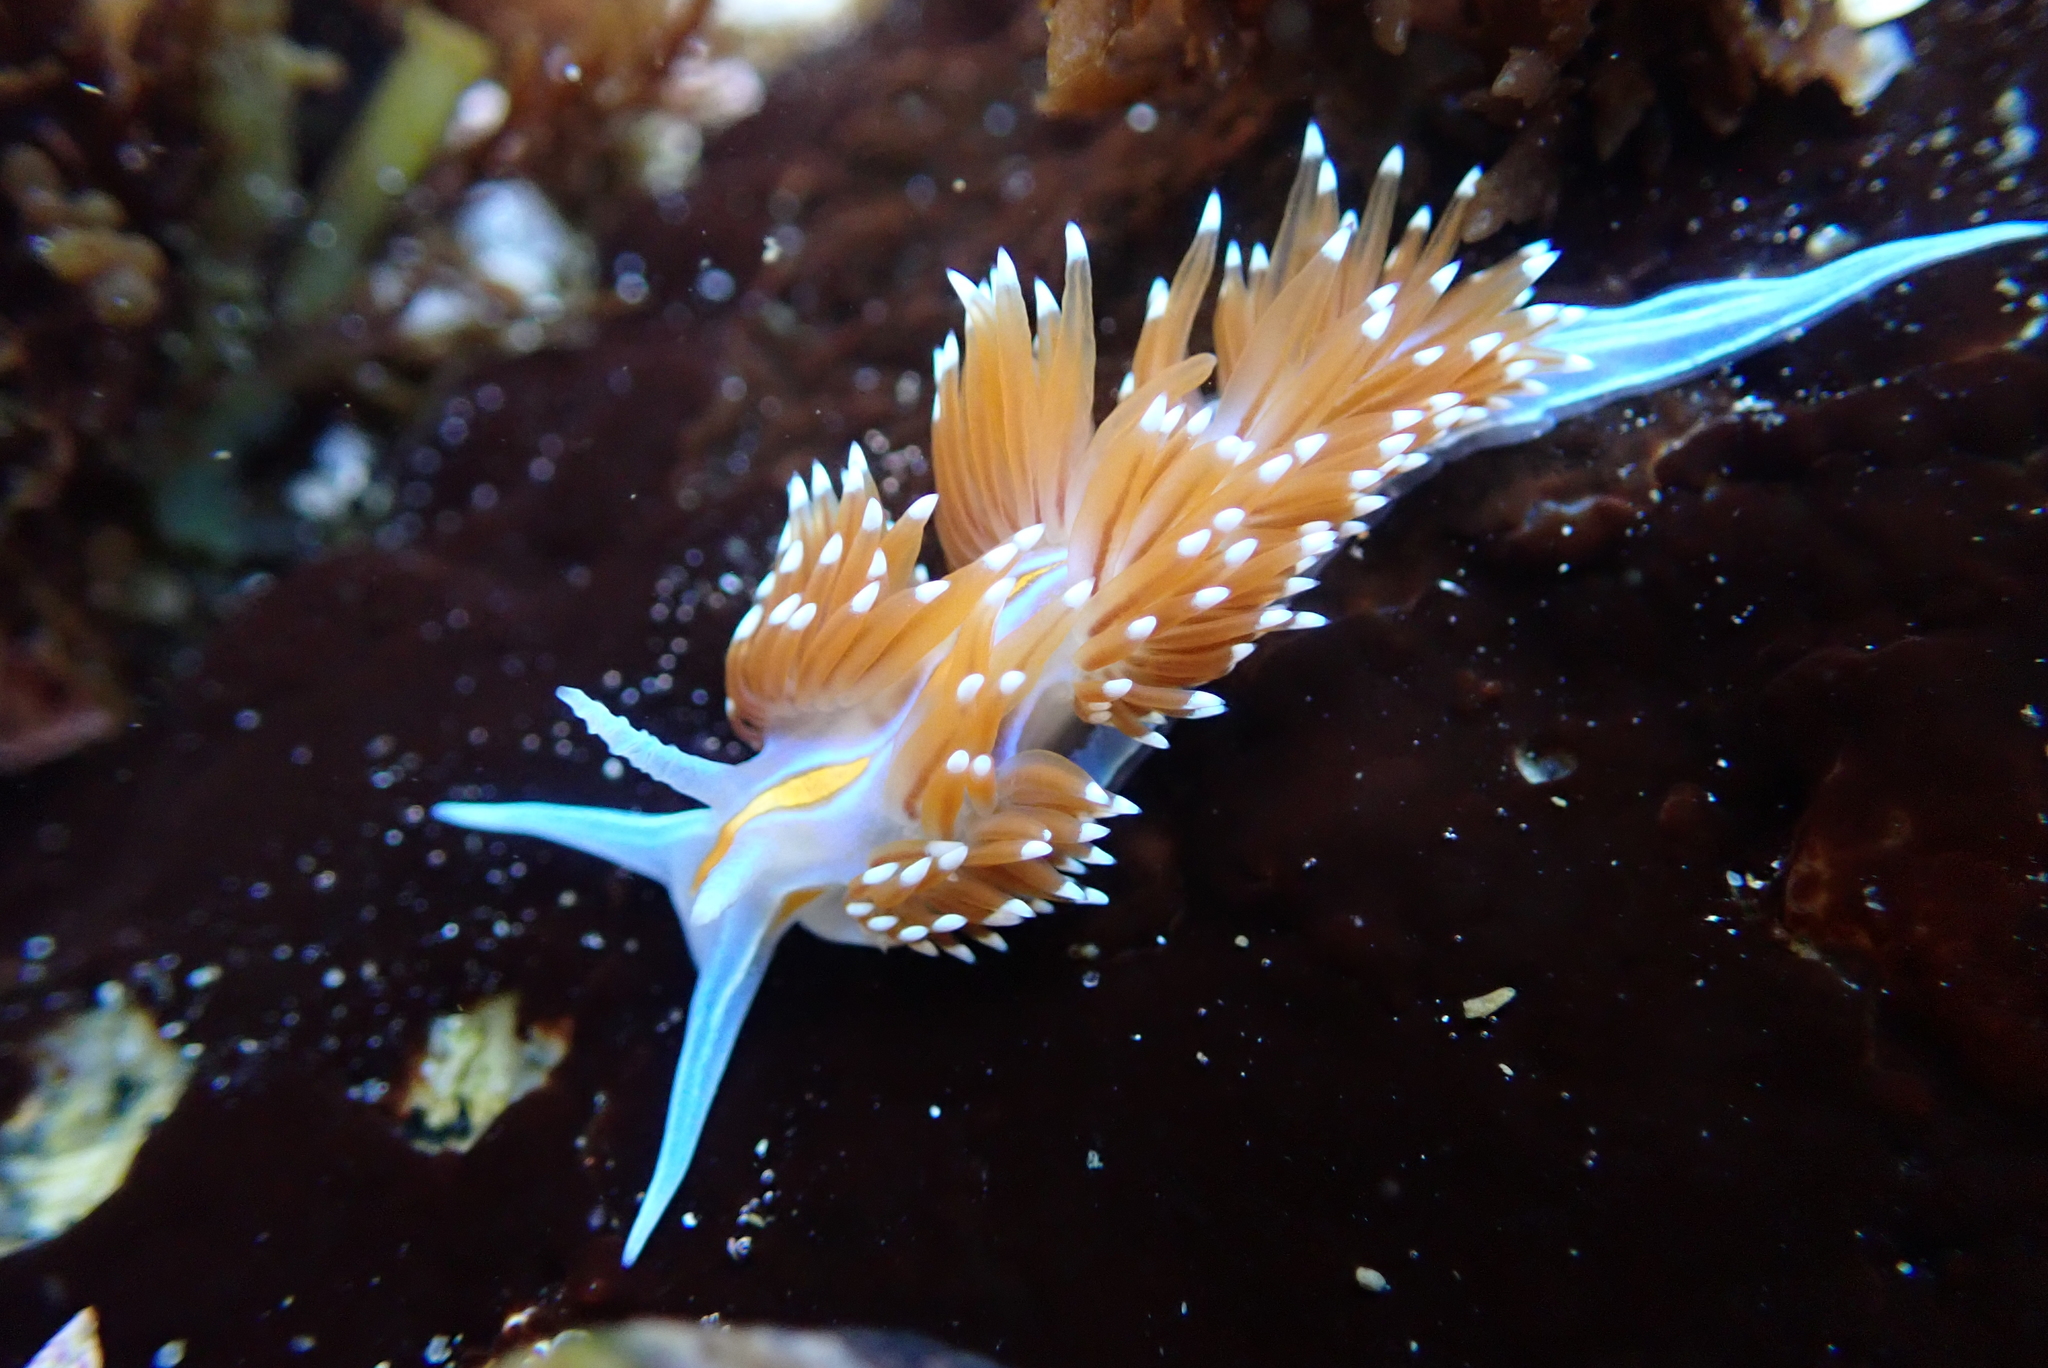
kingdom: Animalia
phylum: Mollusca
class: Gastropoda
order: Nudibranchia
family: Myrrhinidae
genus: Hermissenda
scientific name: Hermissenda opalescens
